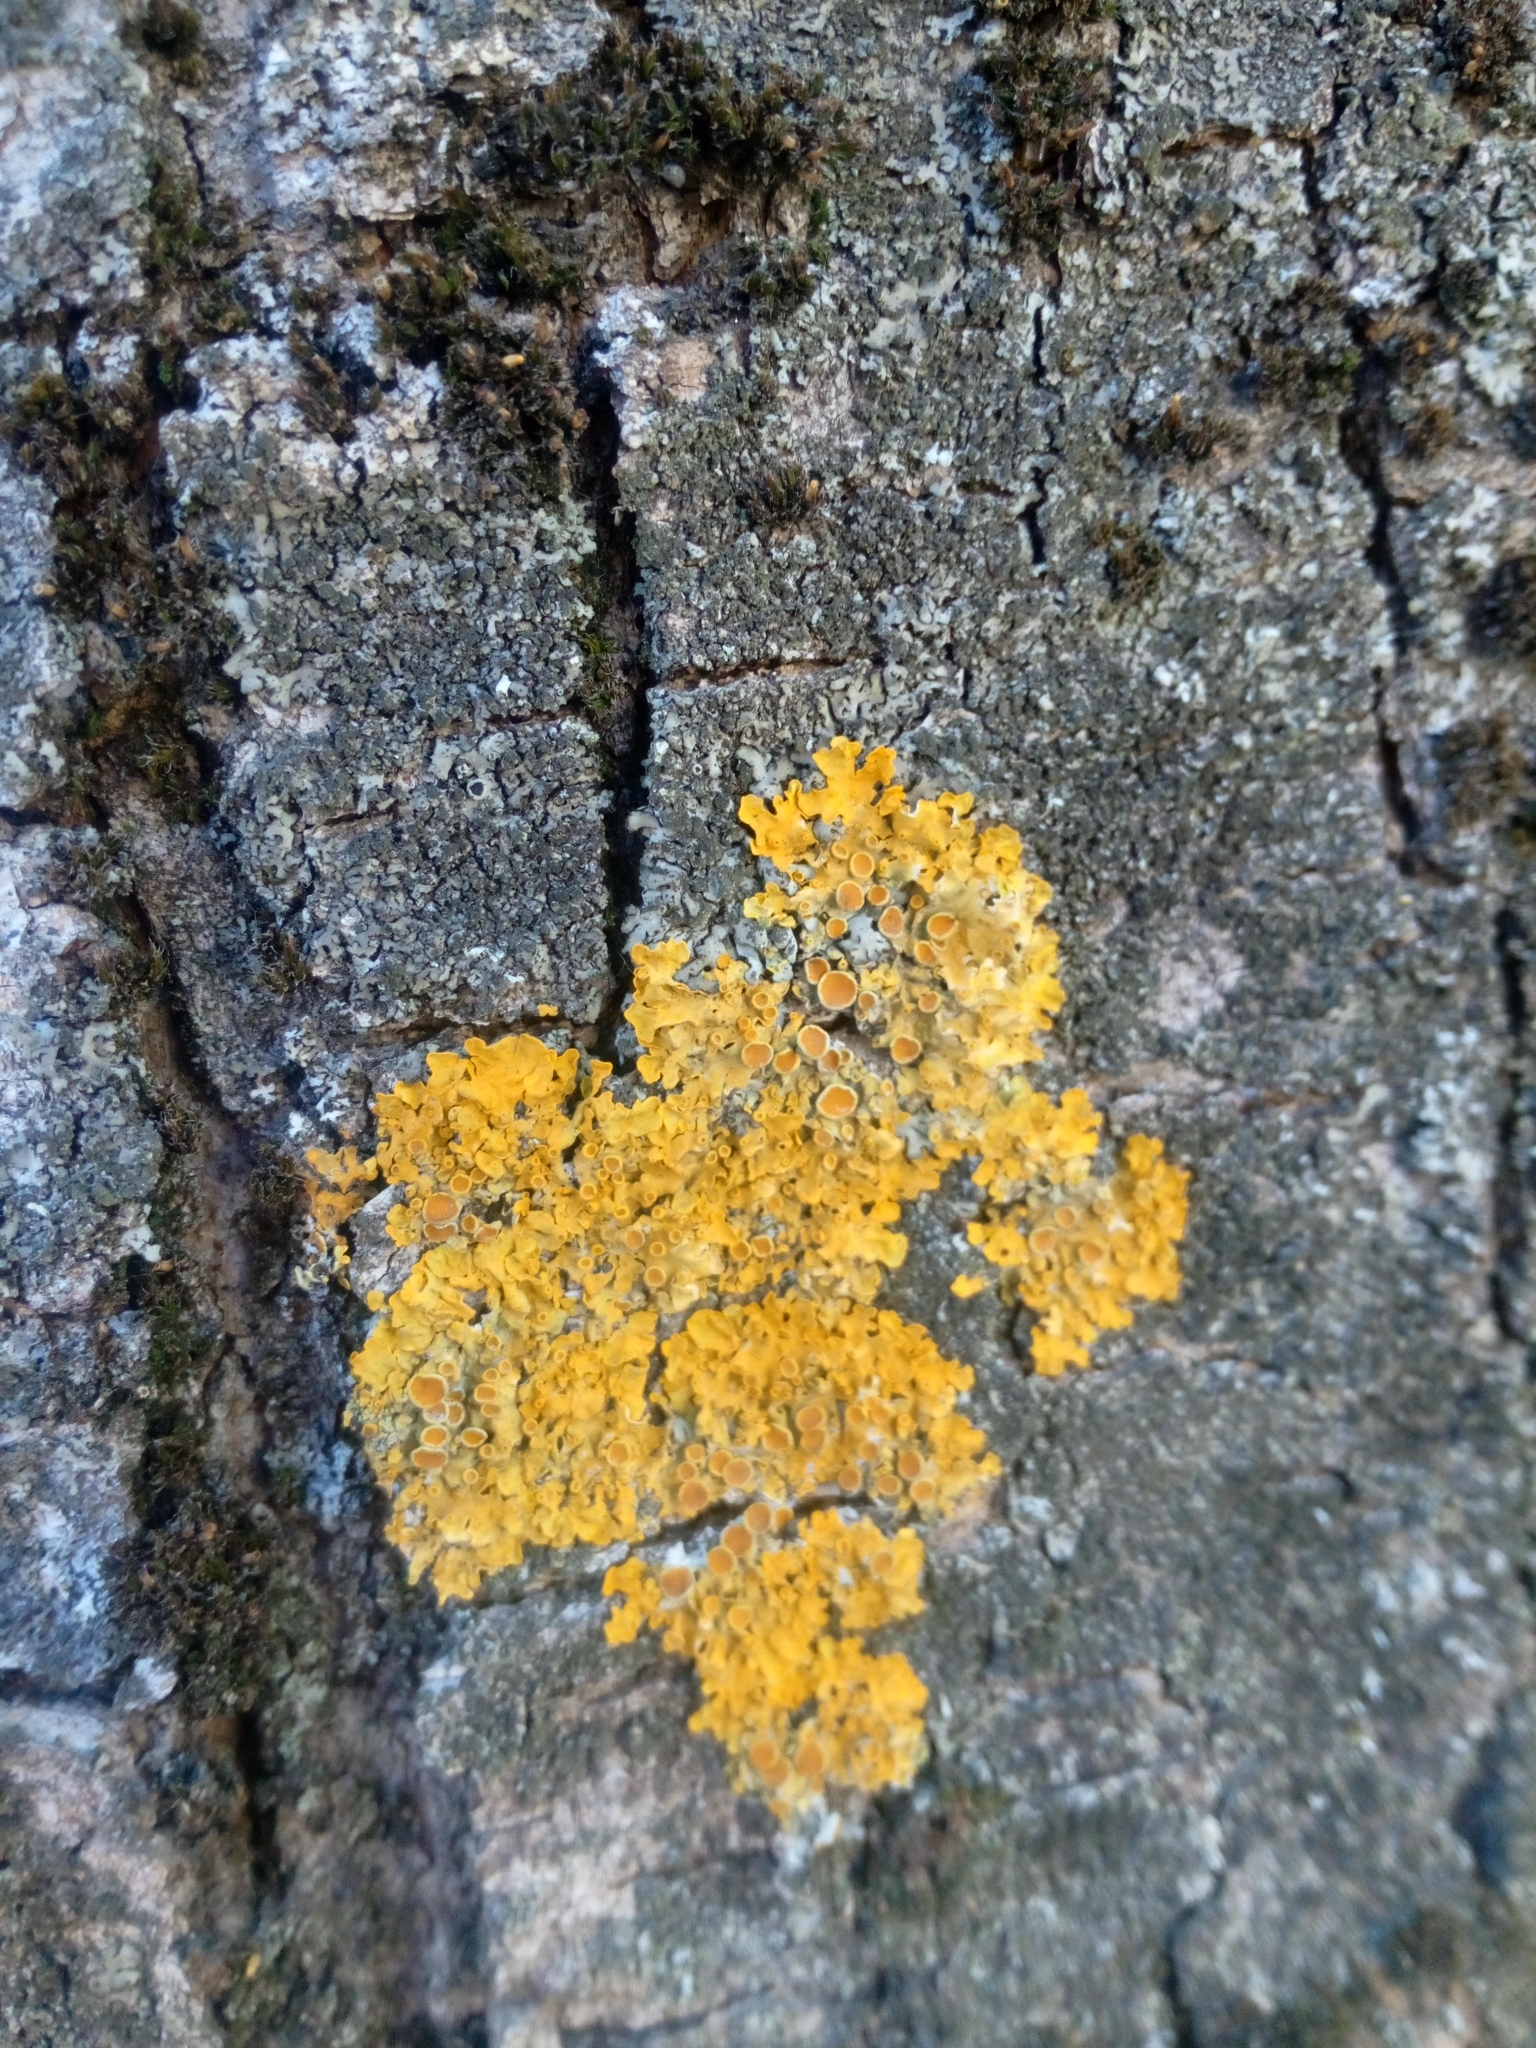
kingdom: Fungi
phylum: Ascomycota
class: Lecanoromycetes
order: Teloschistales
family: Teloschistaceae
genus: Xanthoria
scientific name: Xanthoria parietina
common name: Common orange lichen
